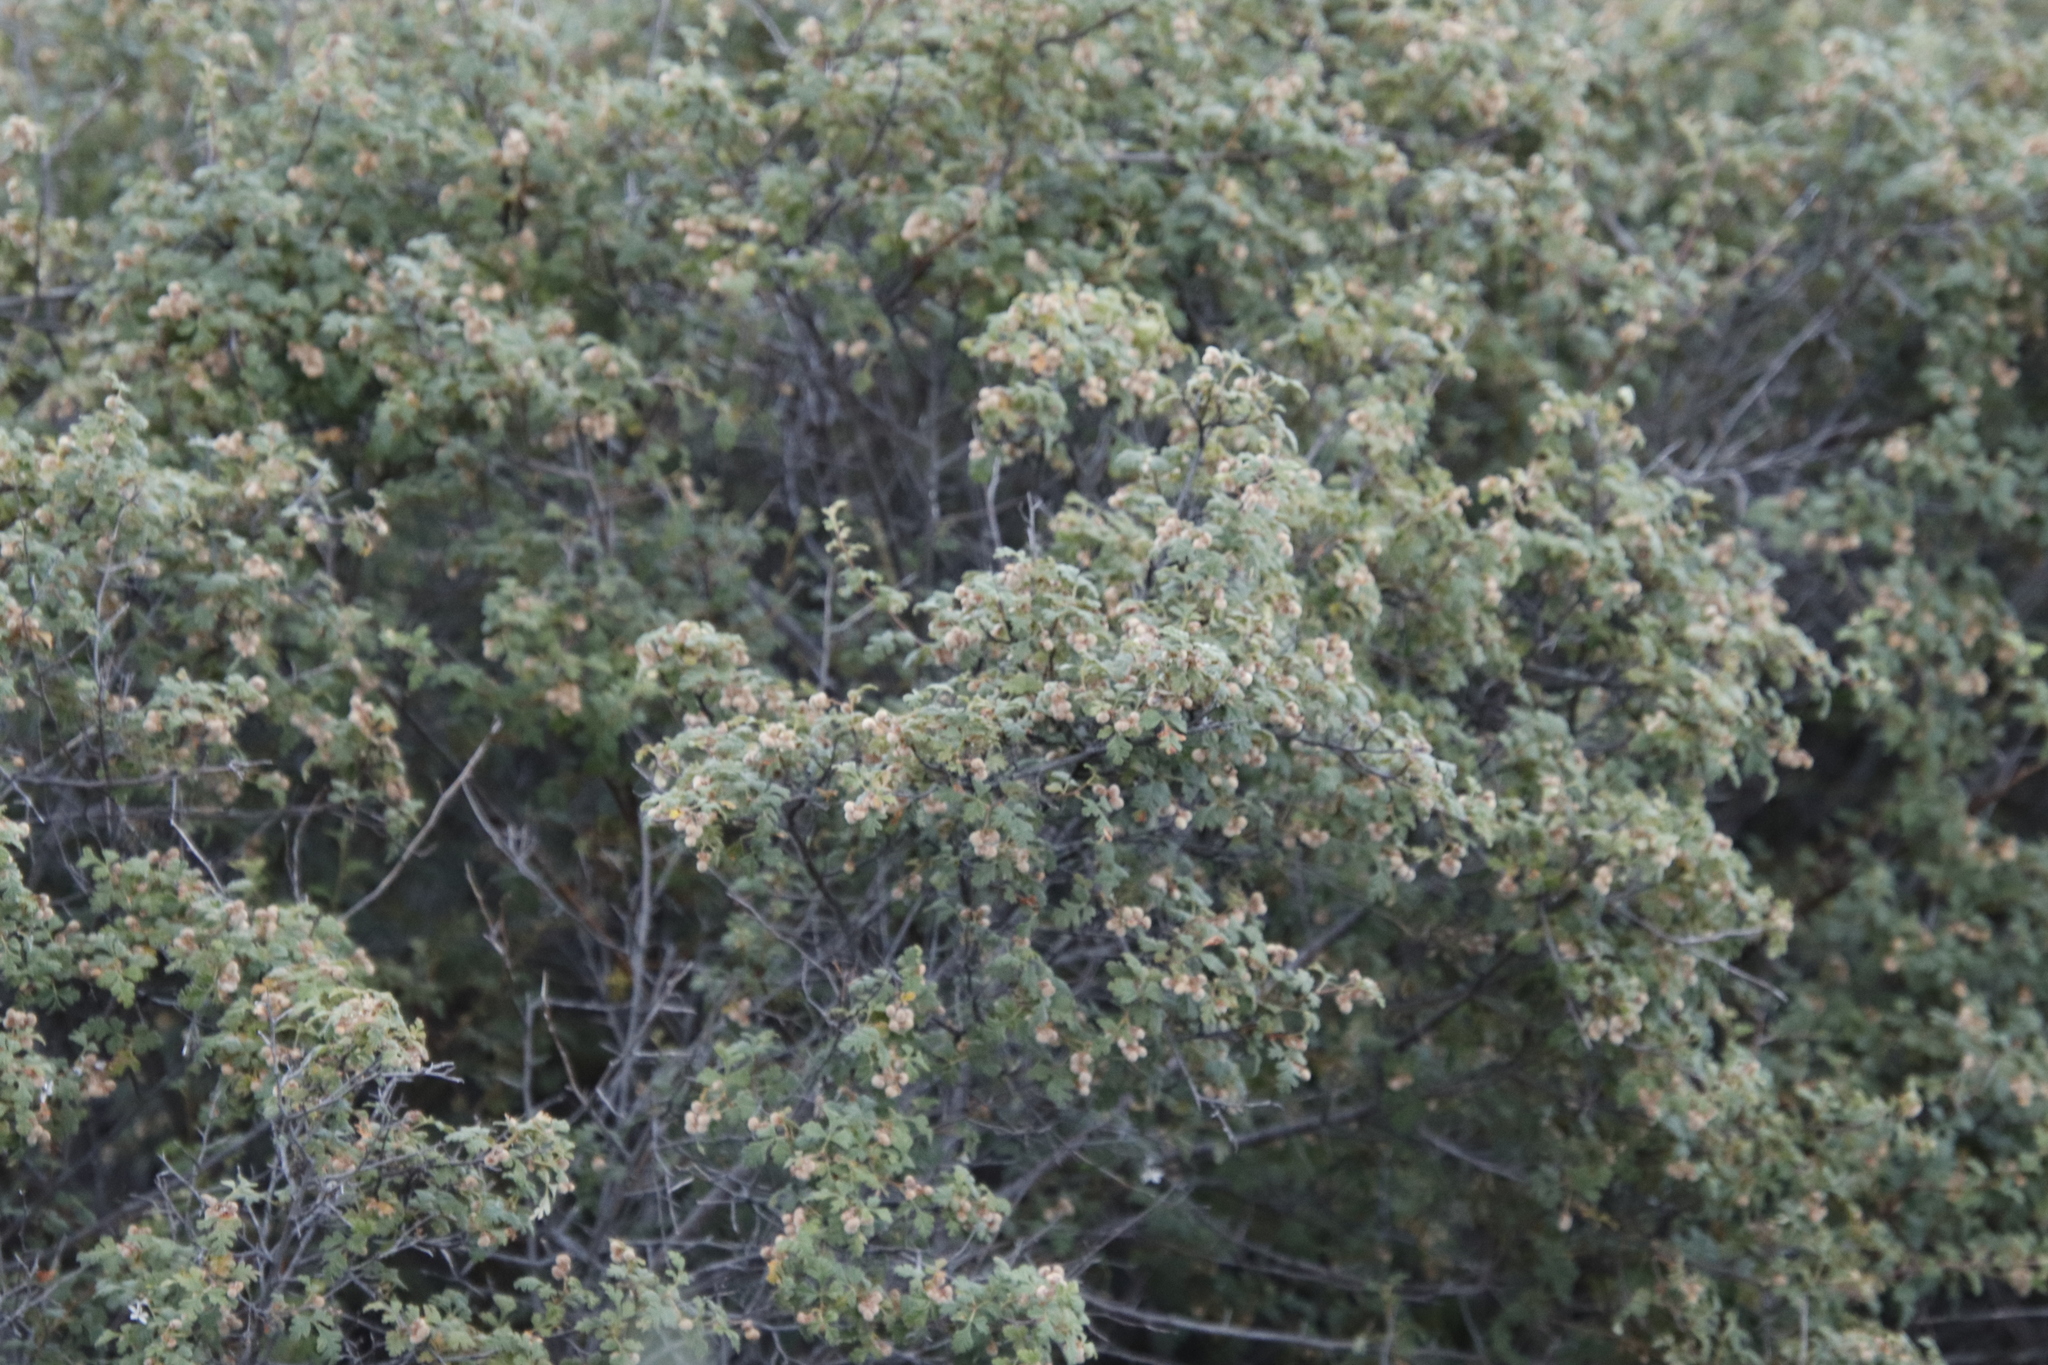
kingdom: Plantae
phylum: Tracheophyta
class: Magnoliopsida
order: Sapindales
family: Anacardiaceae
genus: Searsia
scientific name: Searsia incisa
